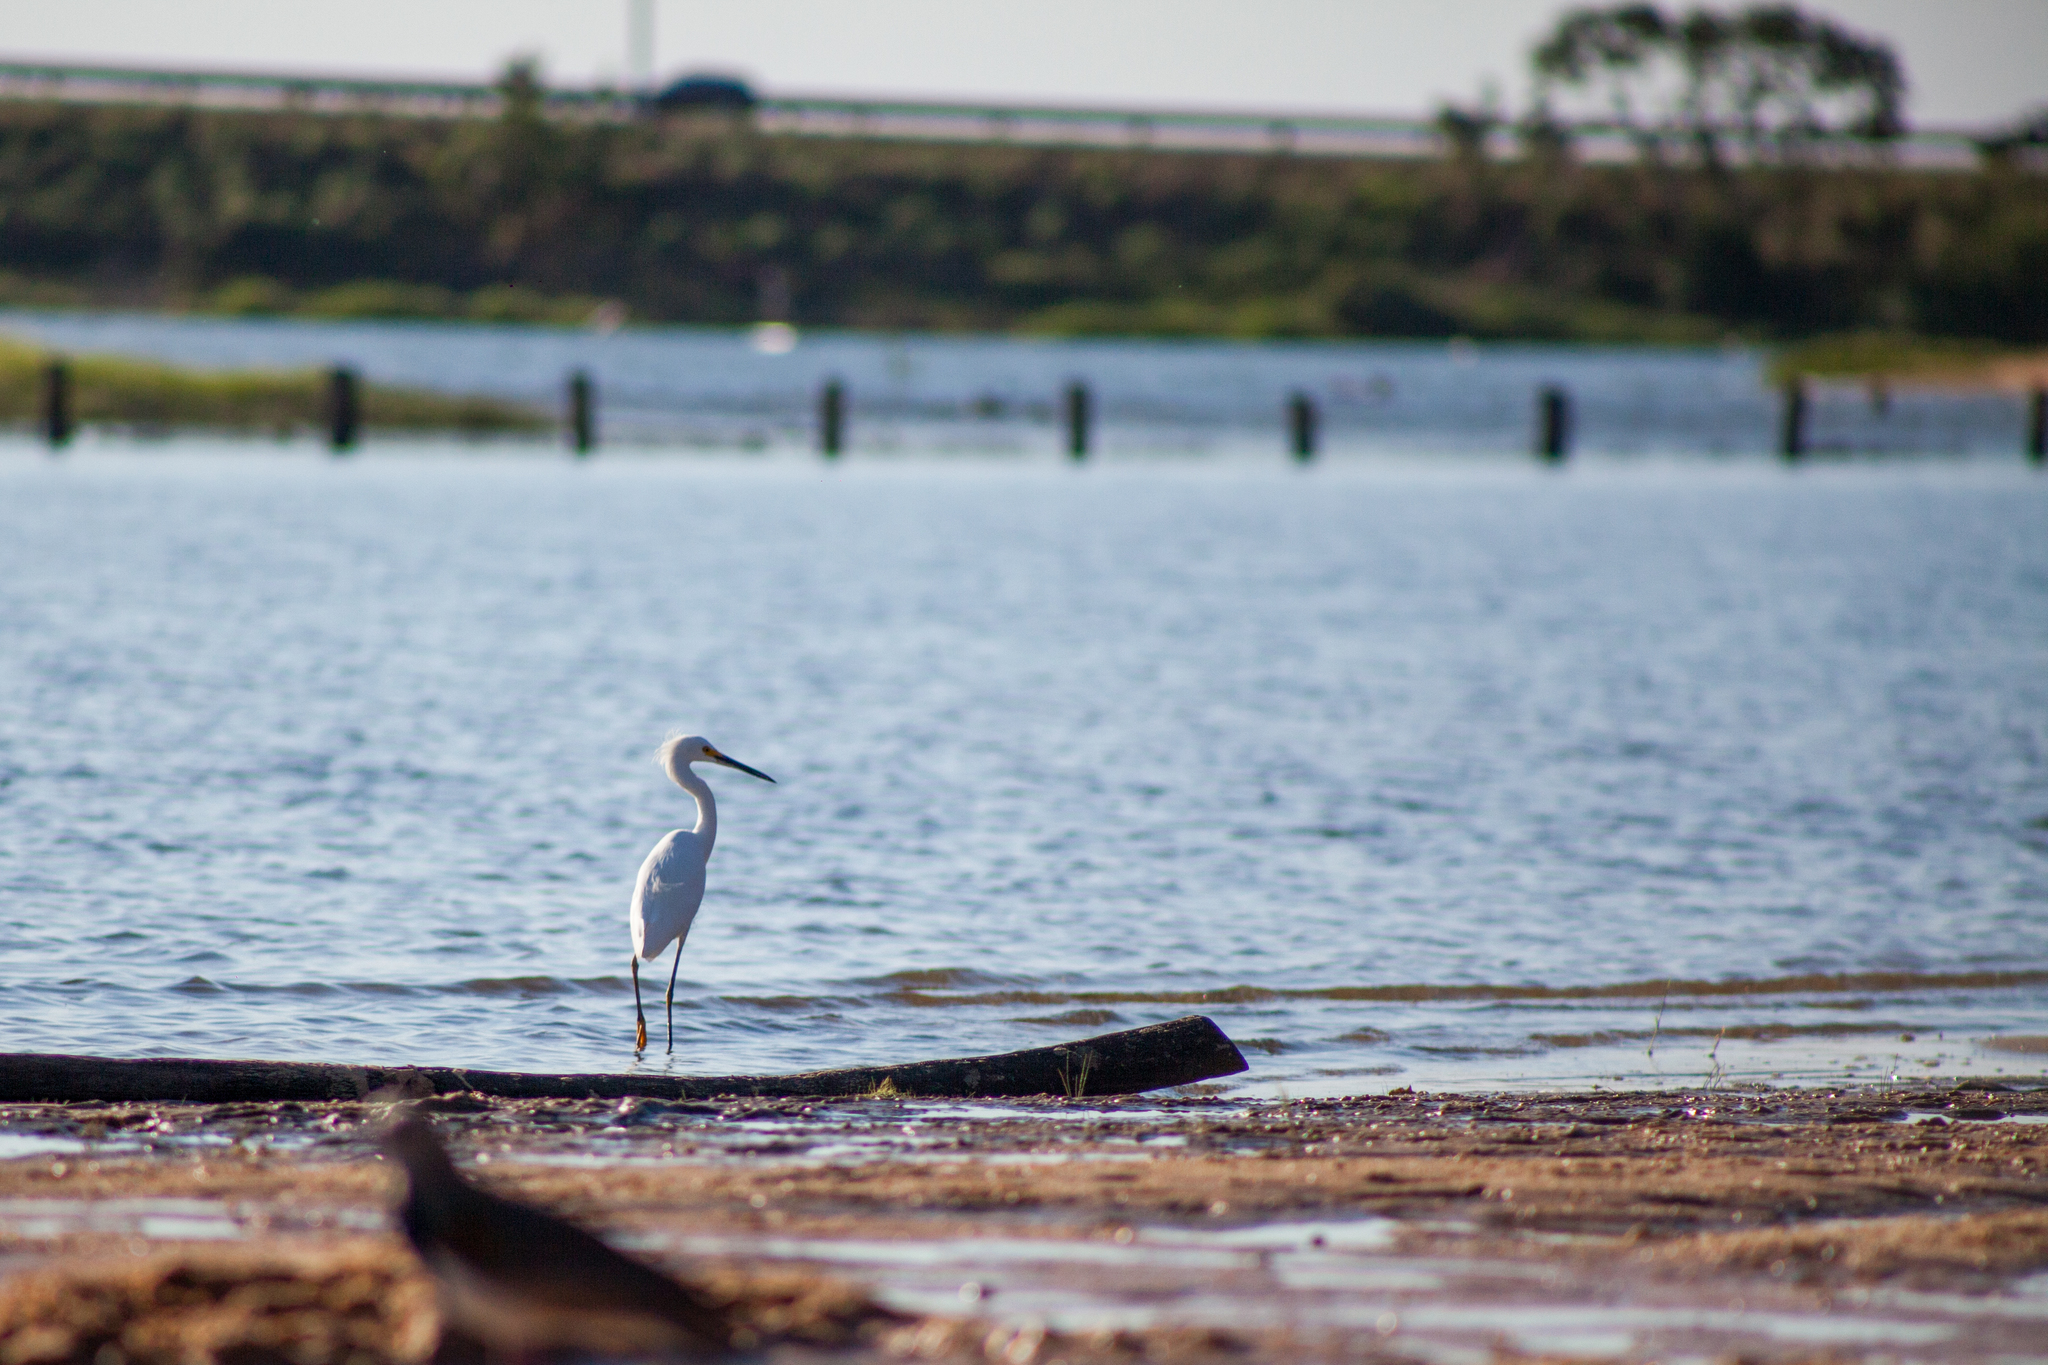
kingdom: Animalia
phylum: Chordata
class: Aves
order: Pelecaniformes
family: Ardeidae
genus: Egretta
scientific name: Egretta thula
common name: Snowy egret
